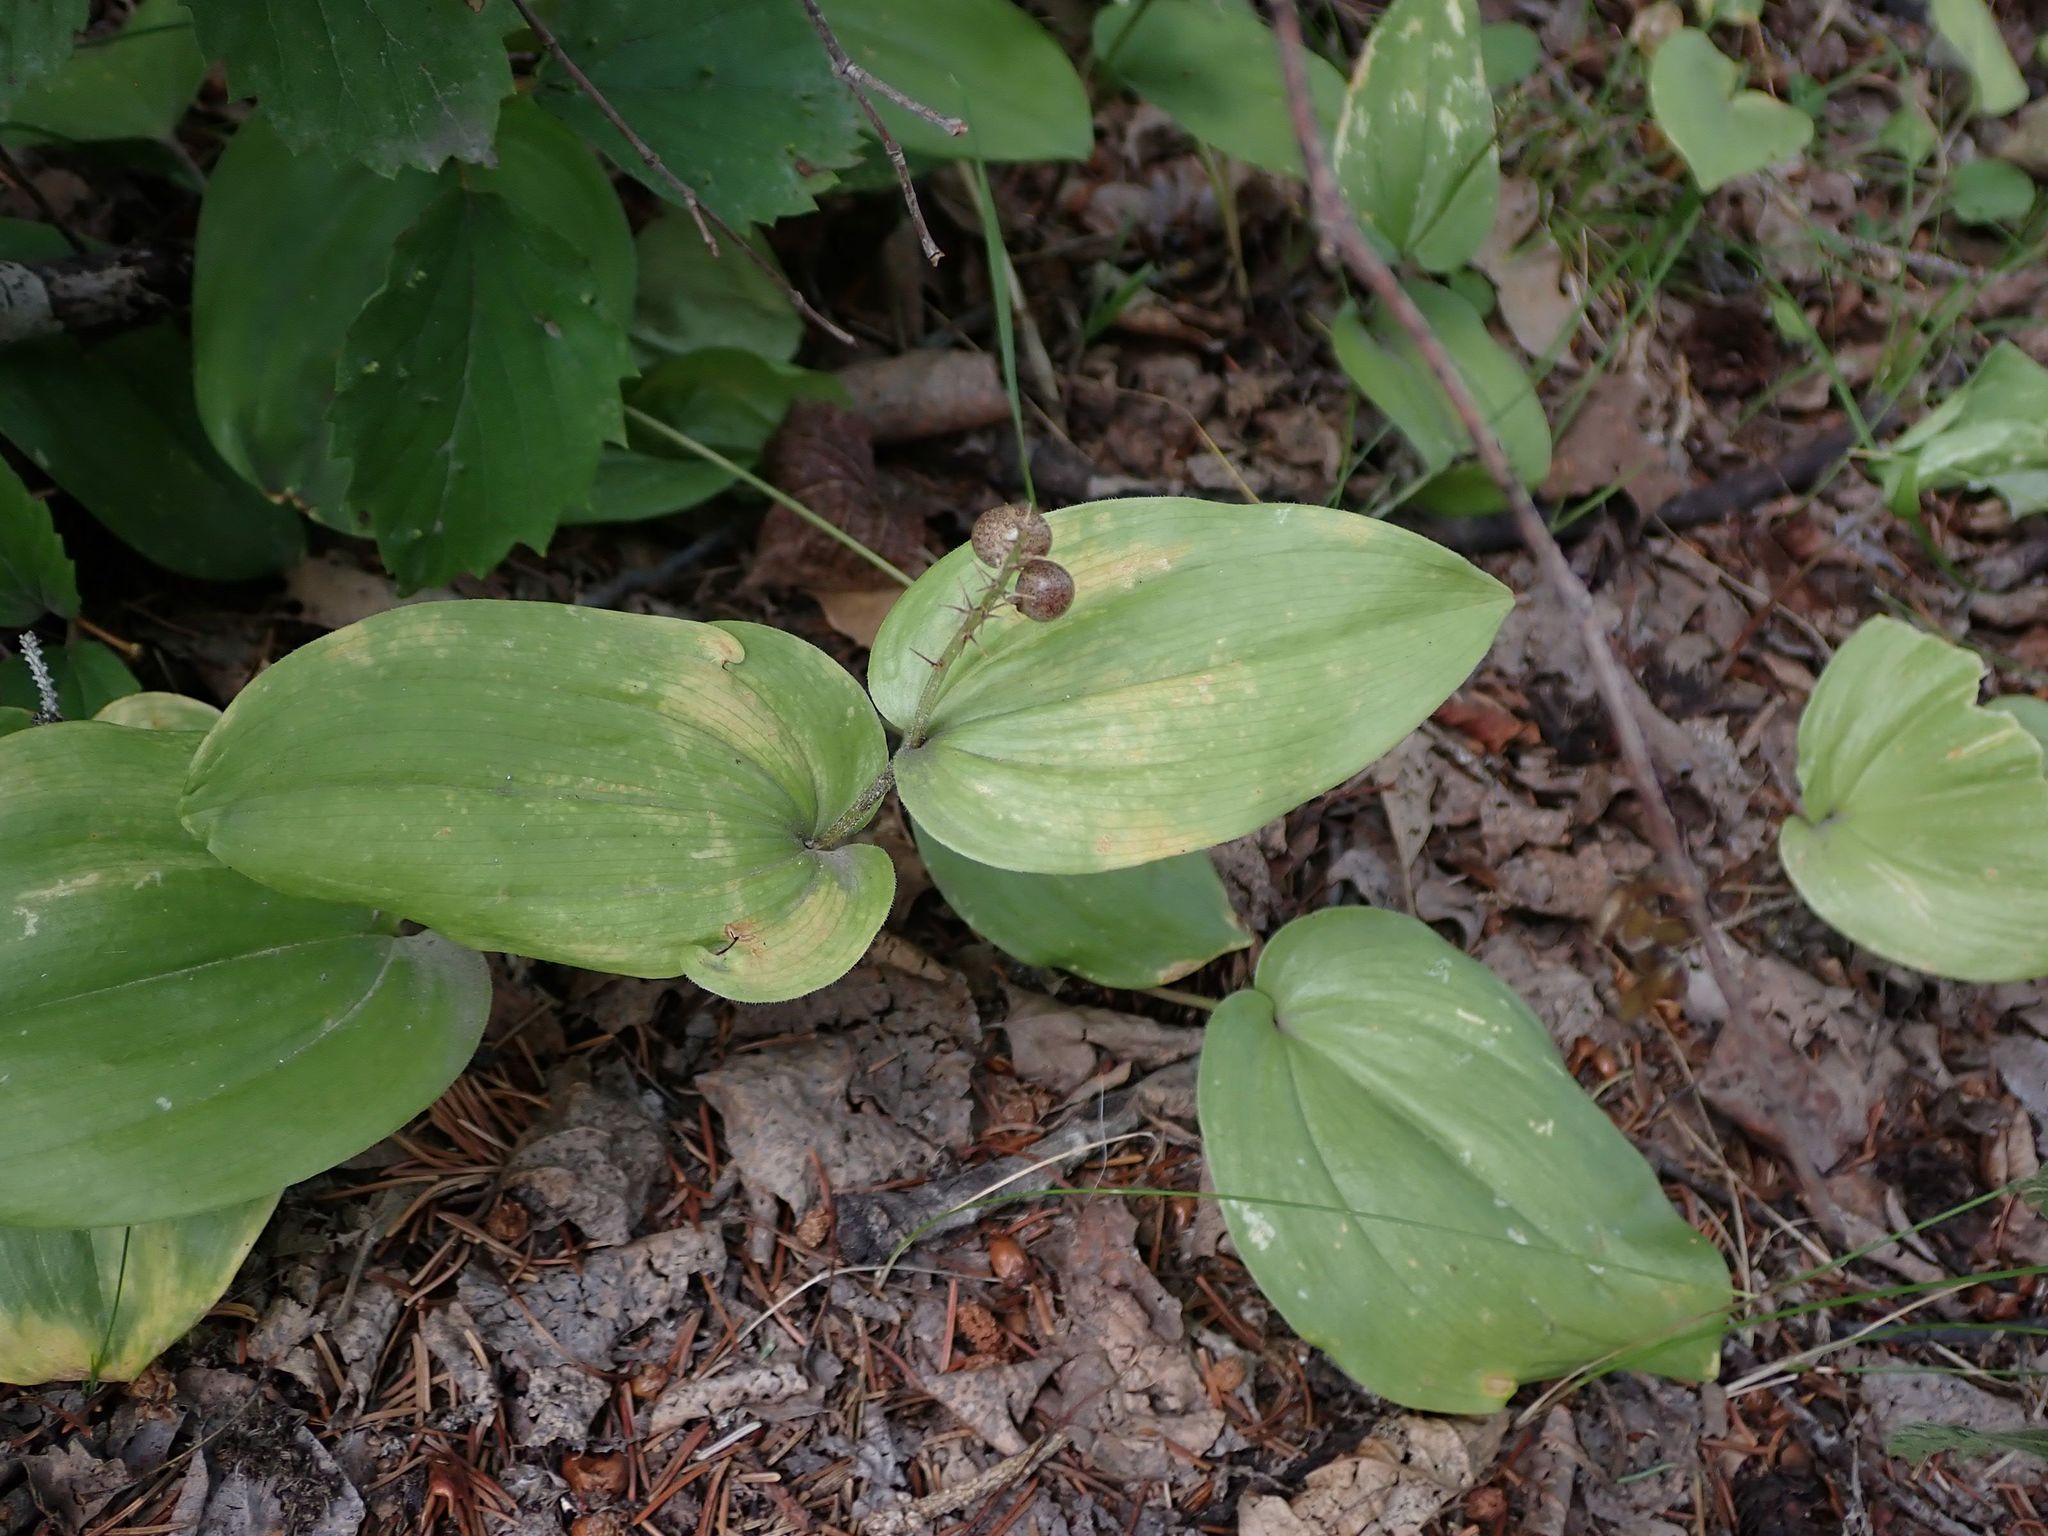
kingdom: Plantae
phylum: Tracheophyta
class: Liliopsida
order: Asparagales
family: Asparagaceae
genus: Maianthemum
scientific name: Maianthemum canadense
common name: False lily-of-the-valley
